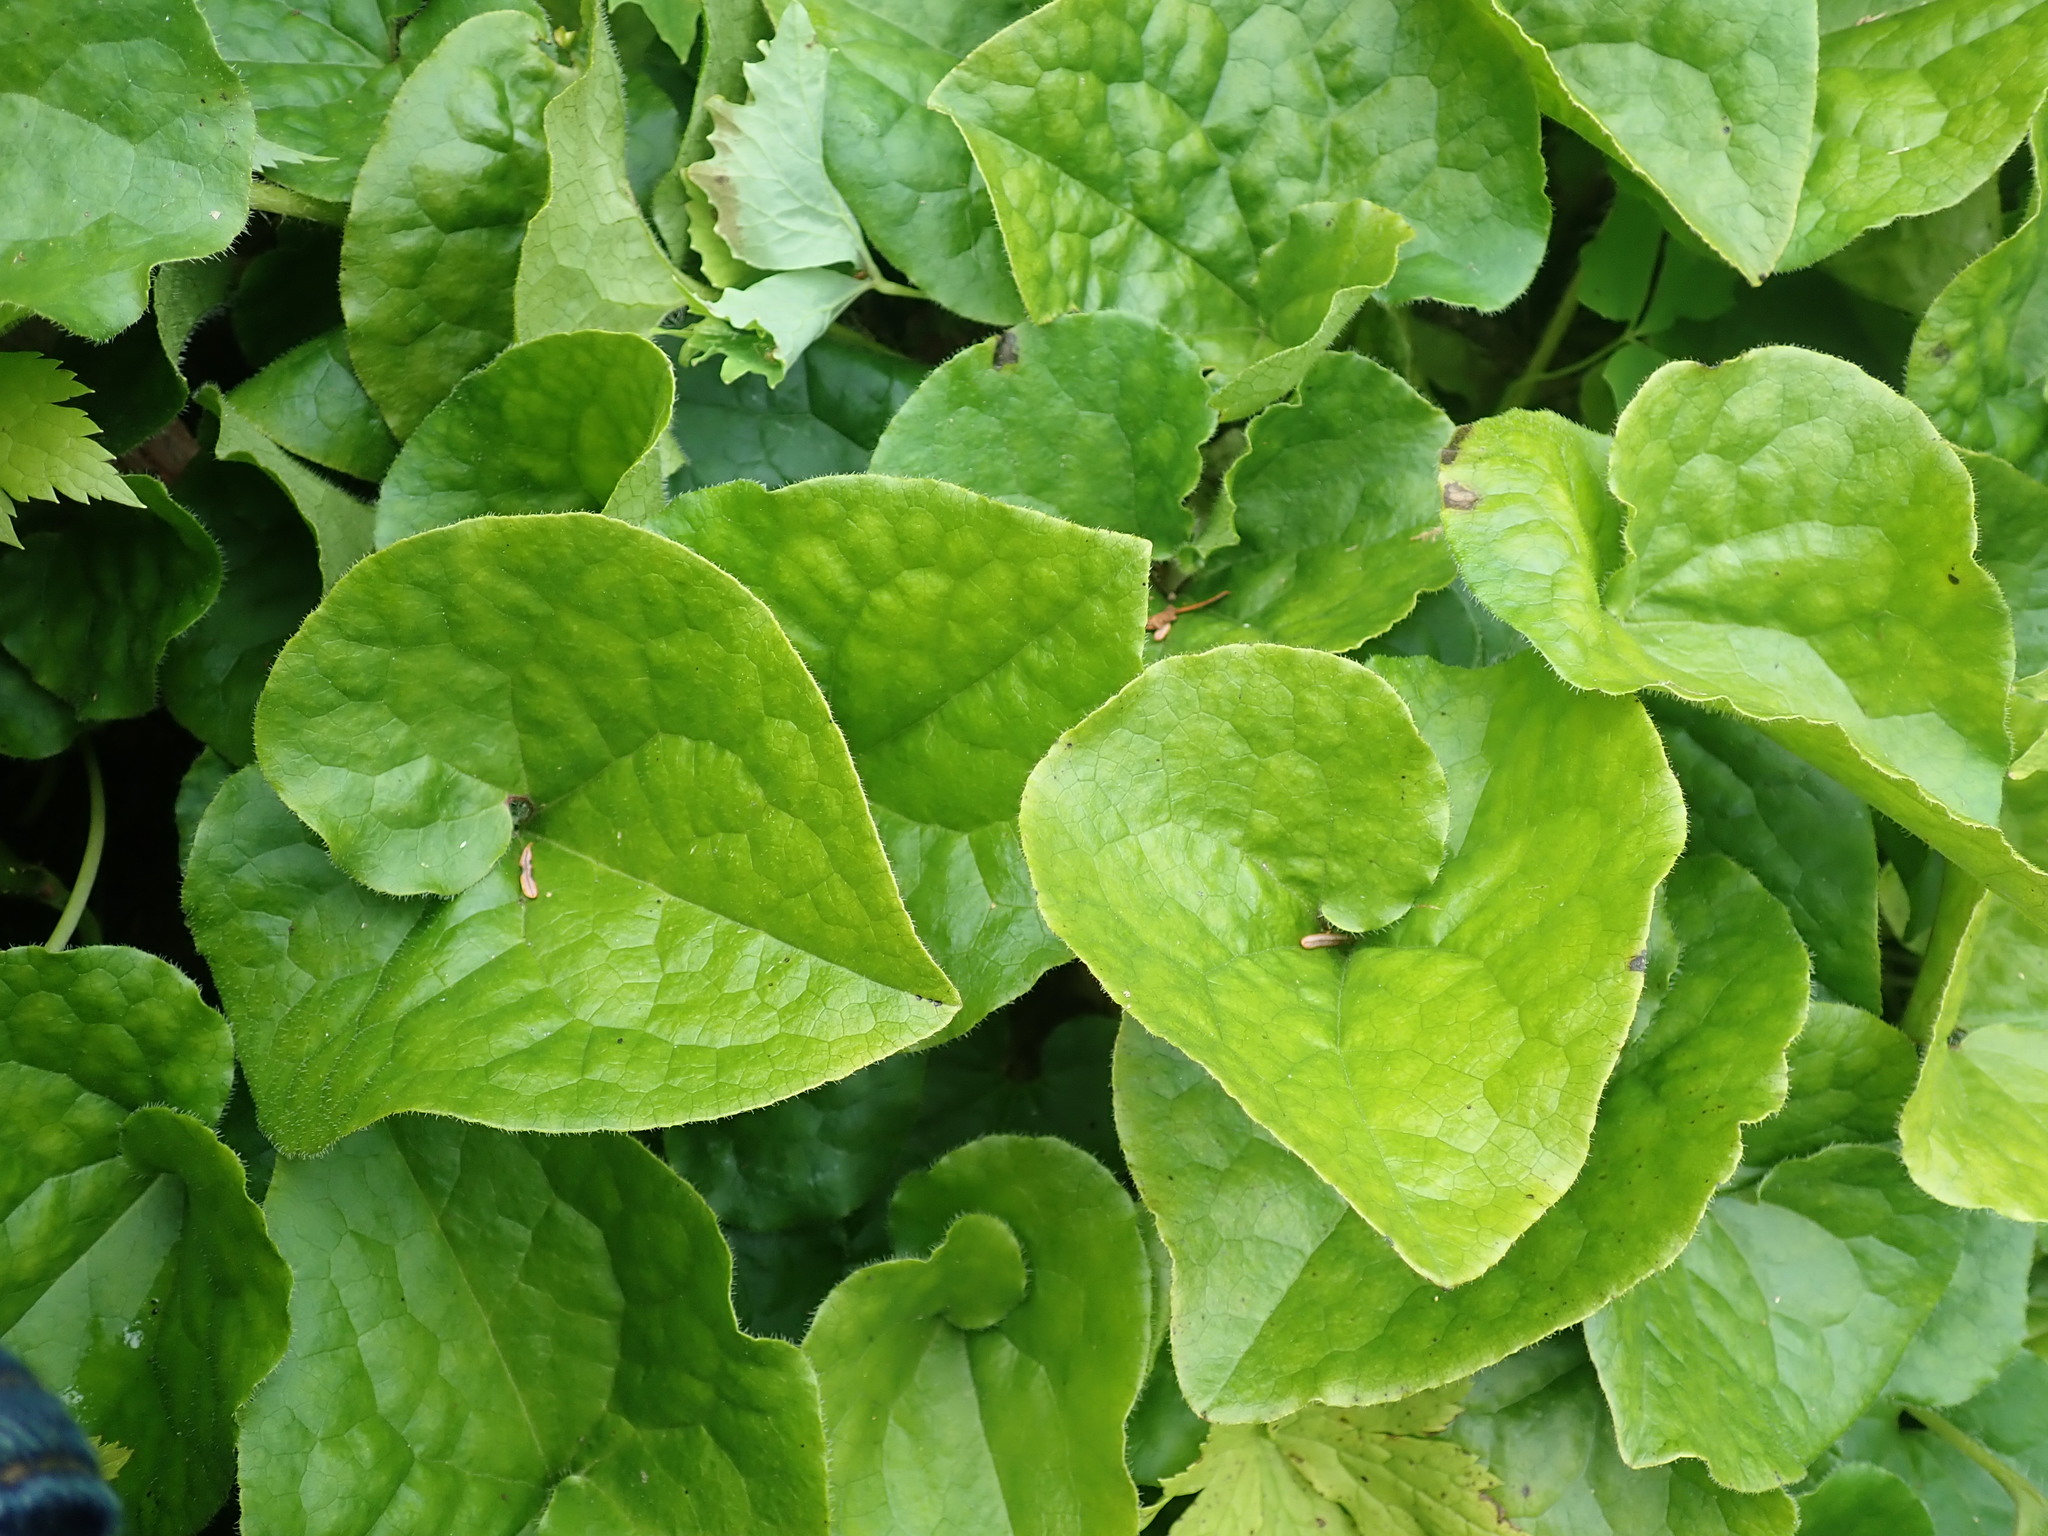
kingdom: Plantae
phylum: Tracheophyta
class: Magnoliopsida
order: Piperales
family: Aristolochiaceae
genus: Asarum
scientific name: Asarum caudatum
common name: Wild ginger
